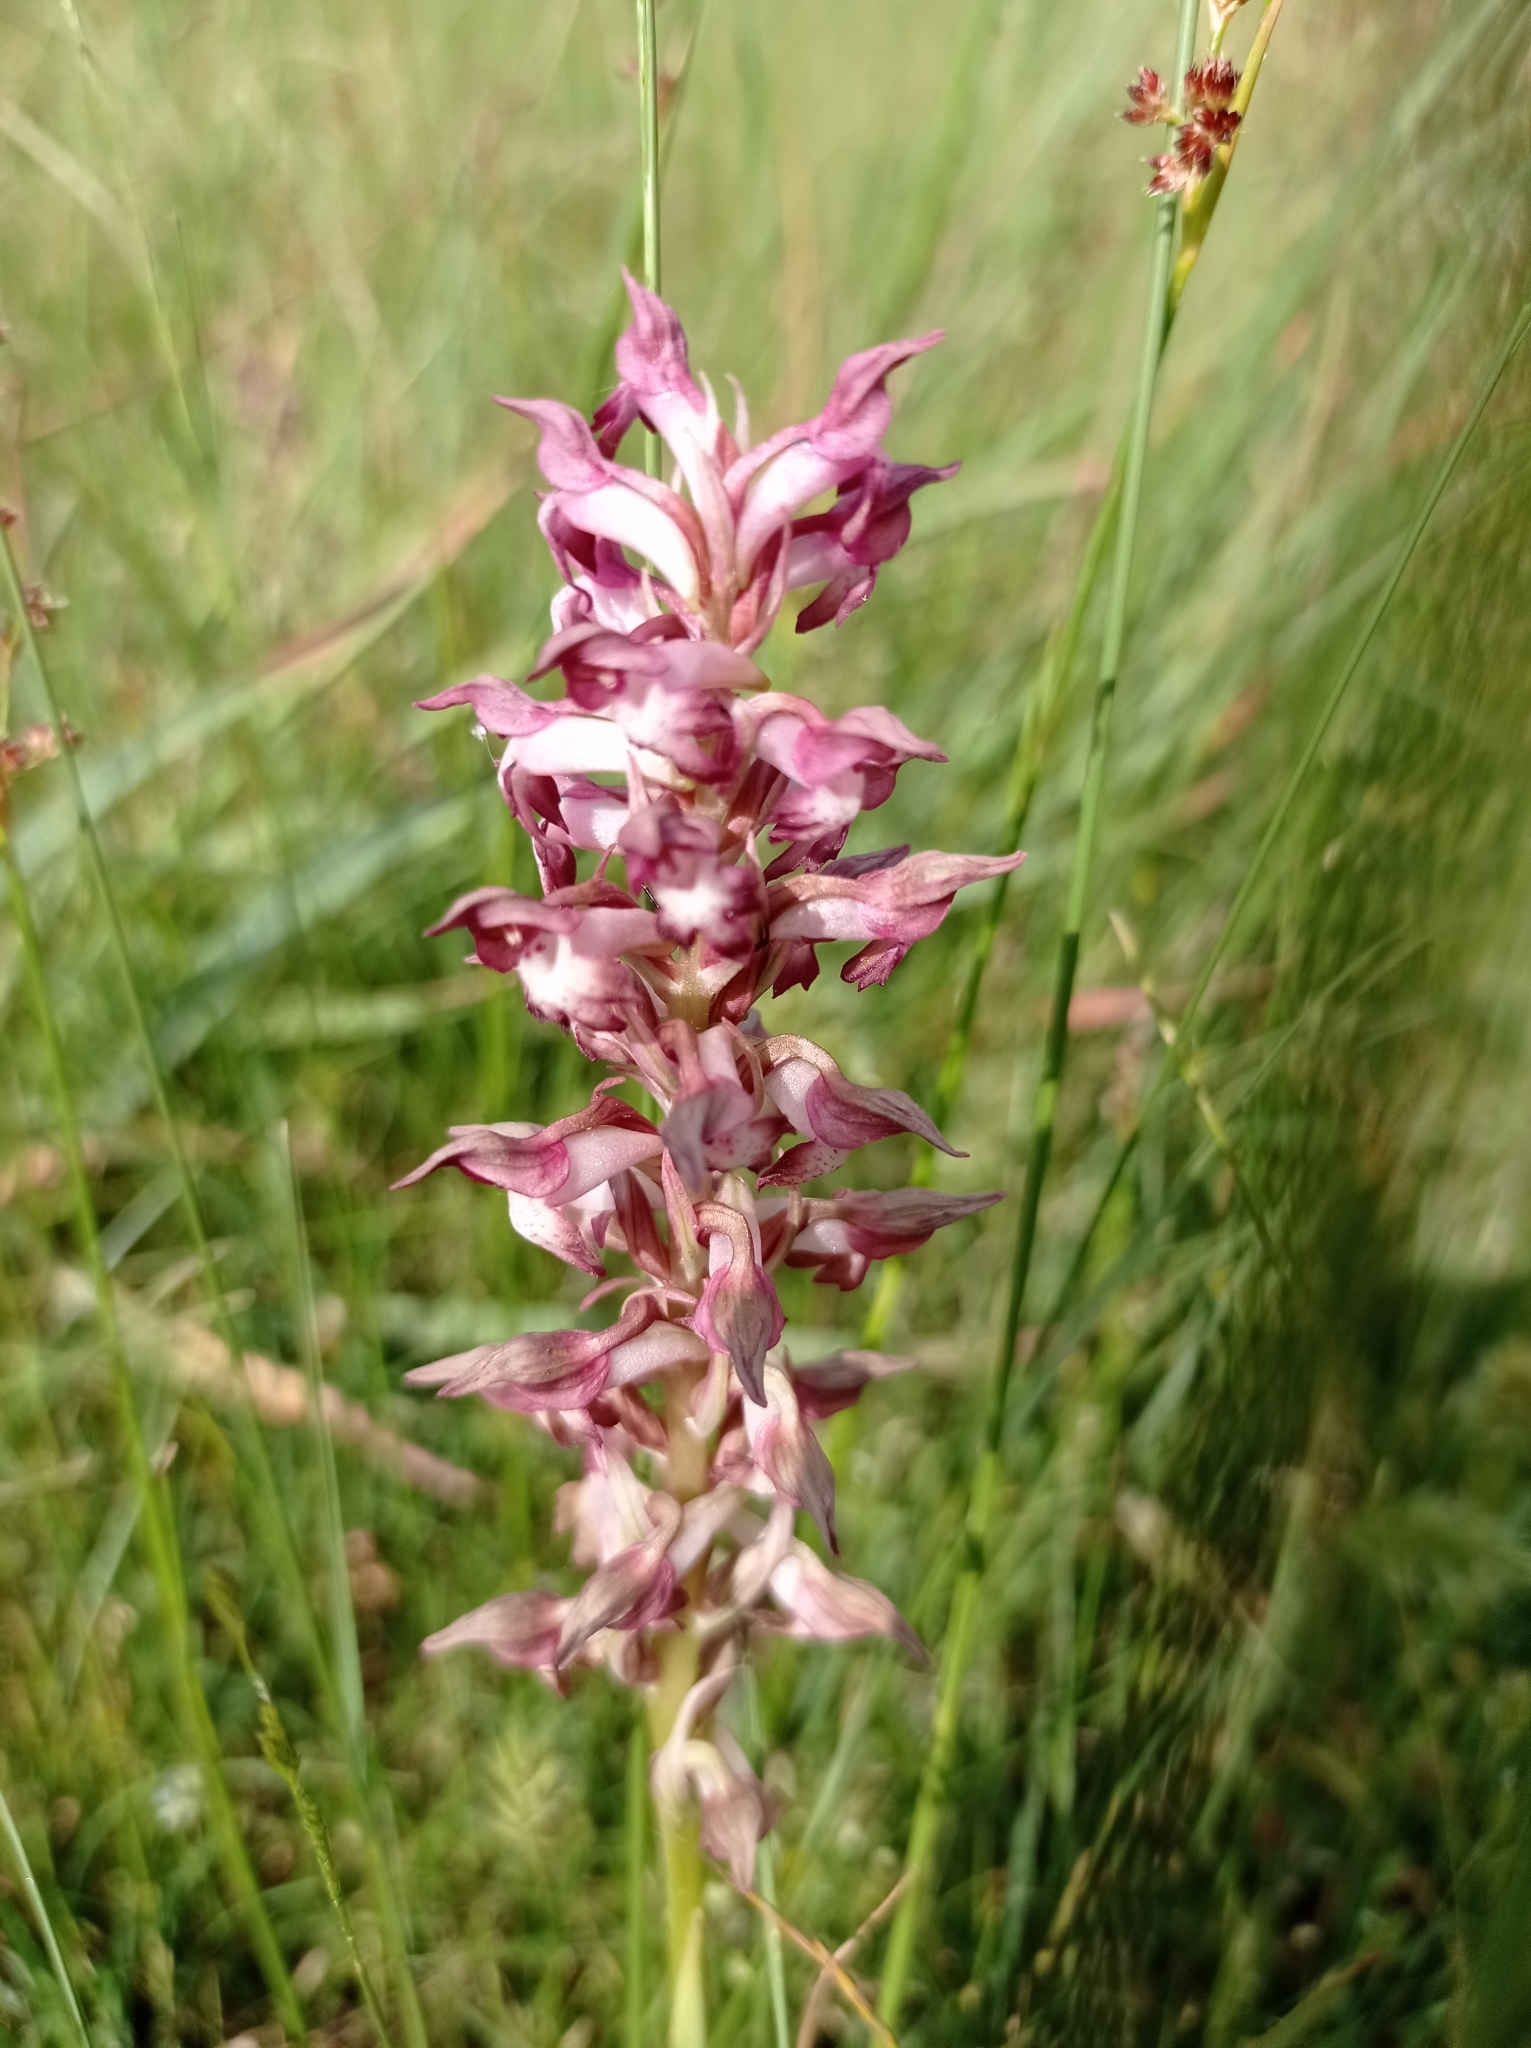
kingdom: Plantae
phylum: Tracheophyta
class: Liliopsida
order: Asparagales
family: Orchidaceae
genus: Anacamptis
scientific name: Anacamptis coriophora
